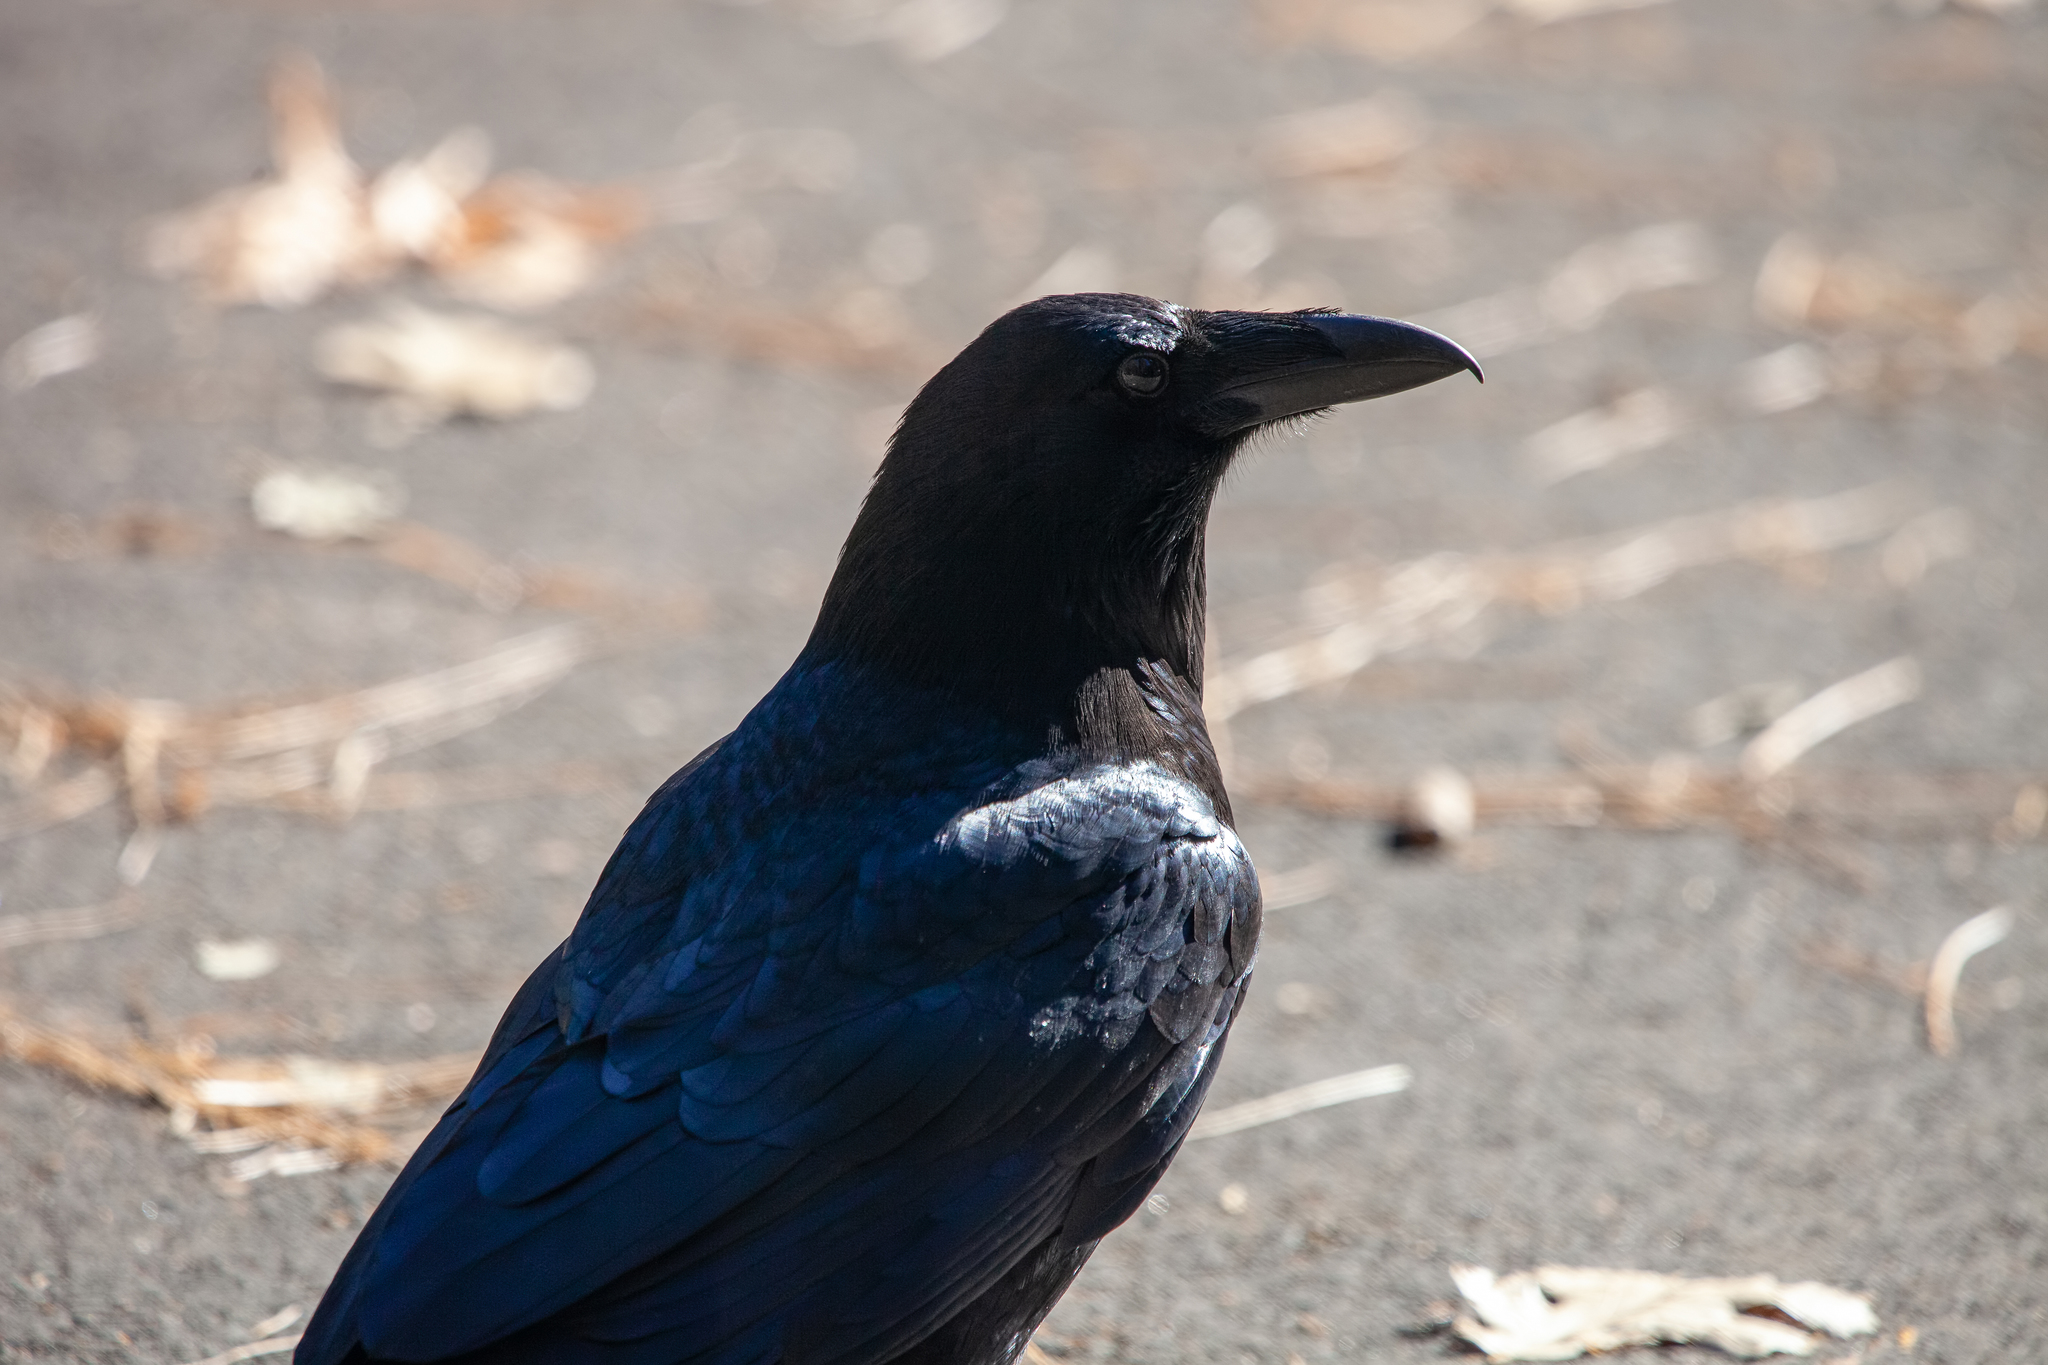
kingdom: Animalia
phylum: Chordata
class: Aves
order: Passeriformes
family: Corvidae
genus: Corvus
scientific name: Corvus corax
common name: Common raven
